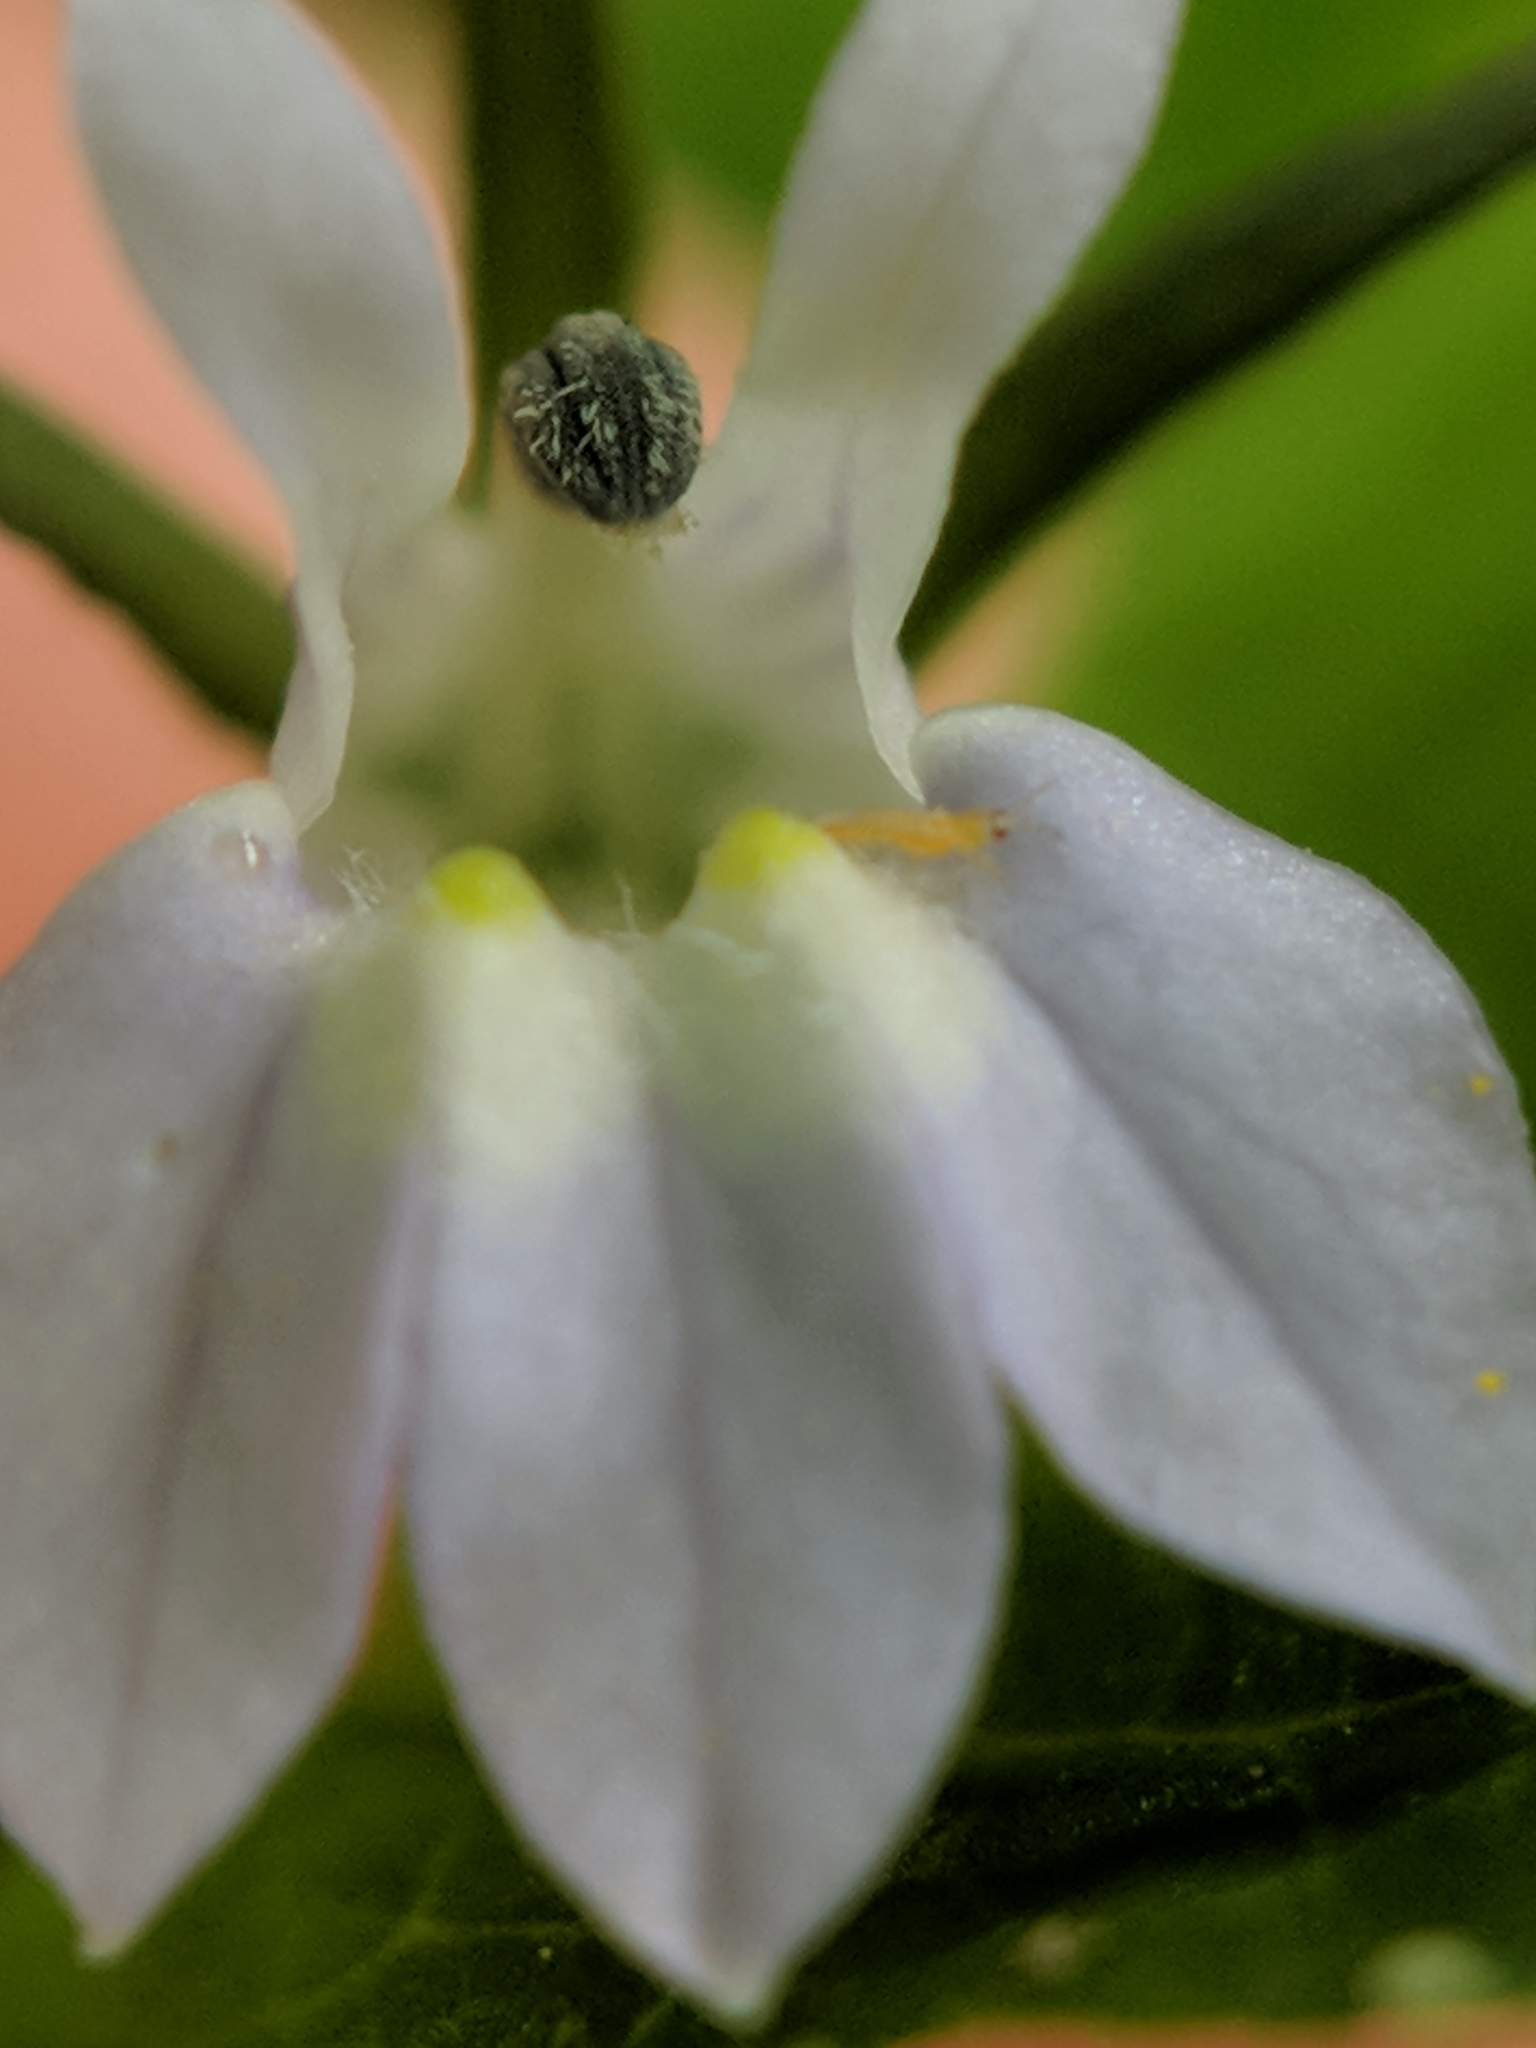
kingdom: Plantae
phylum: Tracheophyta
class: Magnoliopsida
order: Asterales
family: Campanulaceae
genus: Lobelia
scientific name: Lobelia inflata
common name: Indian tobacco
